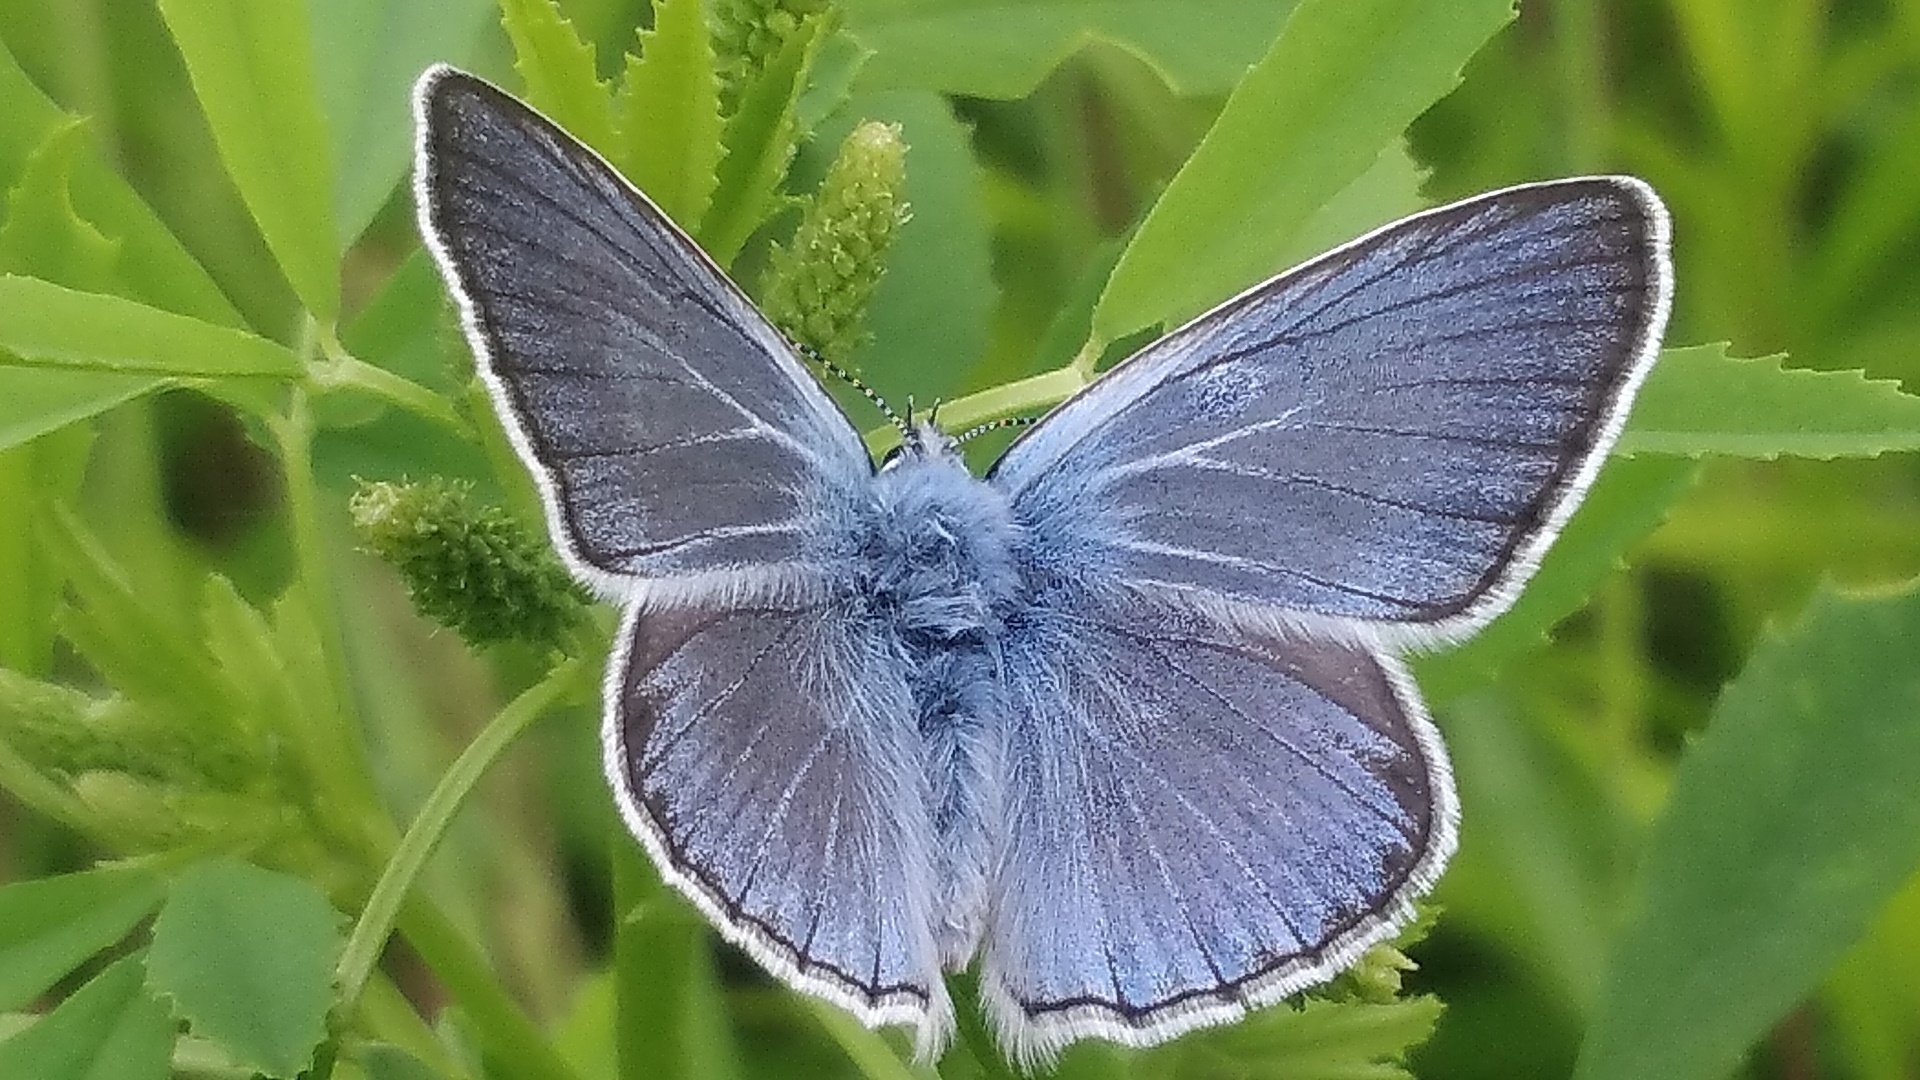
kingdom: Animalia
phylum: Arthropoda
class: Insecta
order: Lepidoptera
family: Lycaenidae
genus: Plebejus
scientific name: Plebejus amanda
